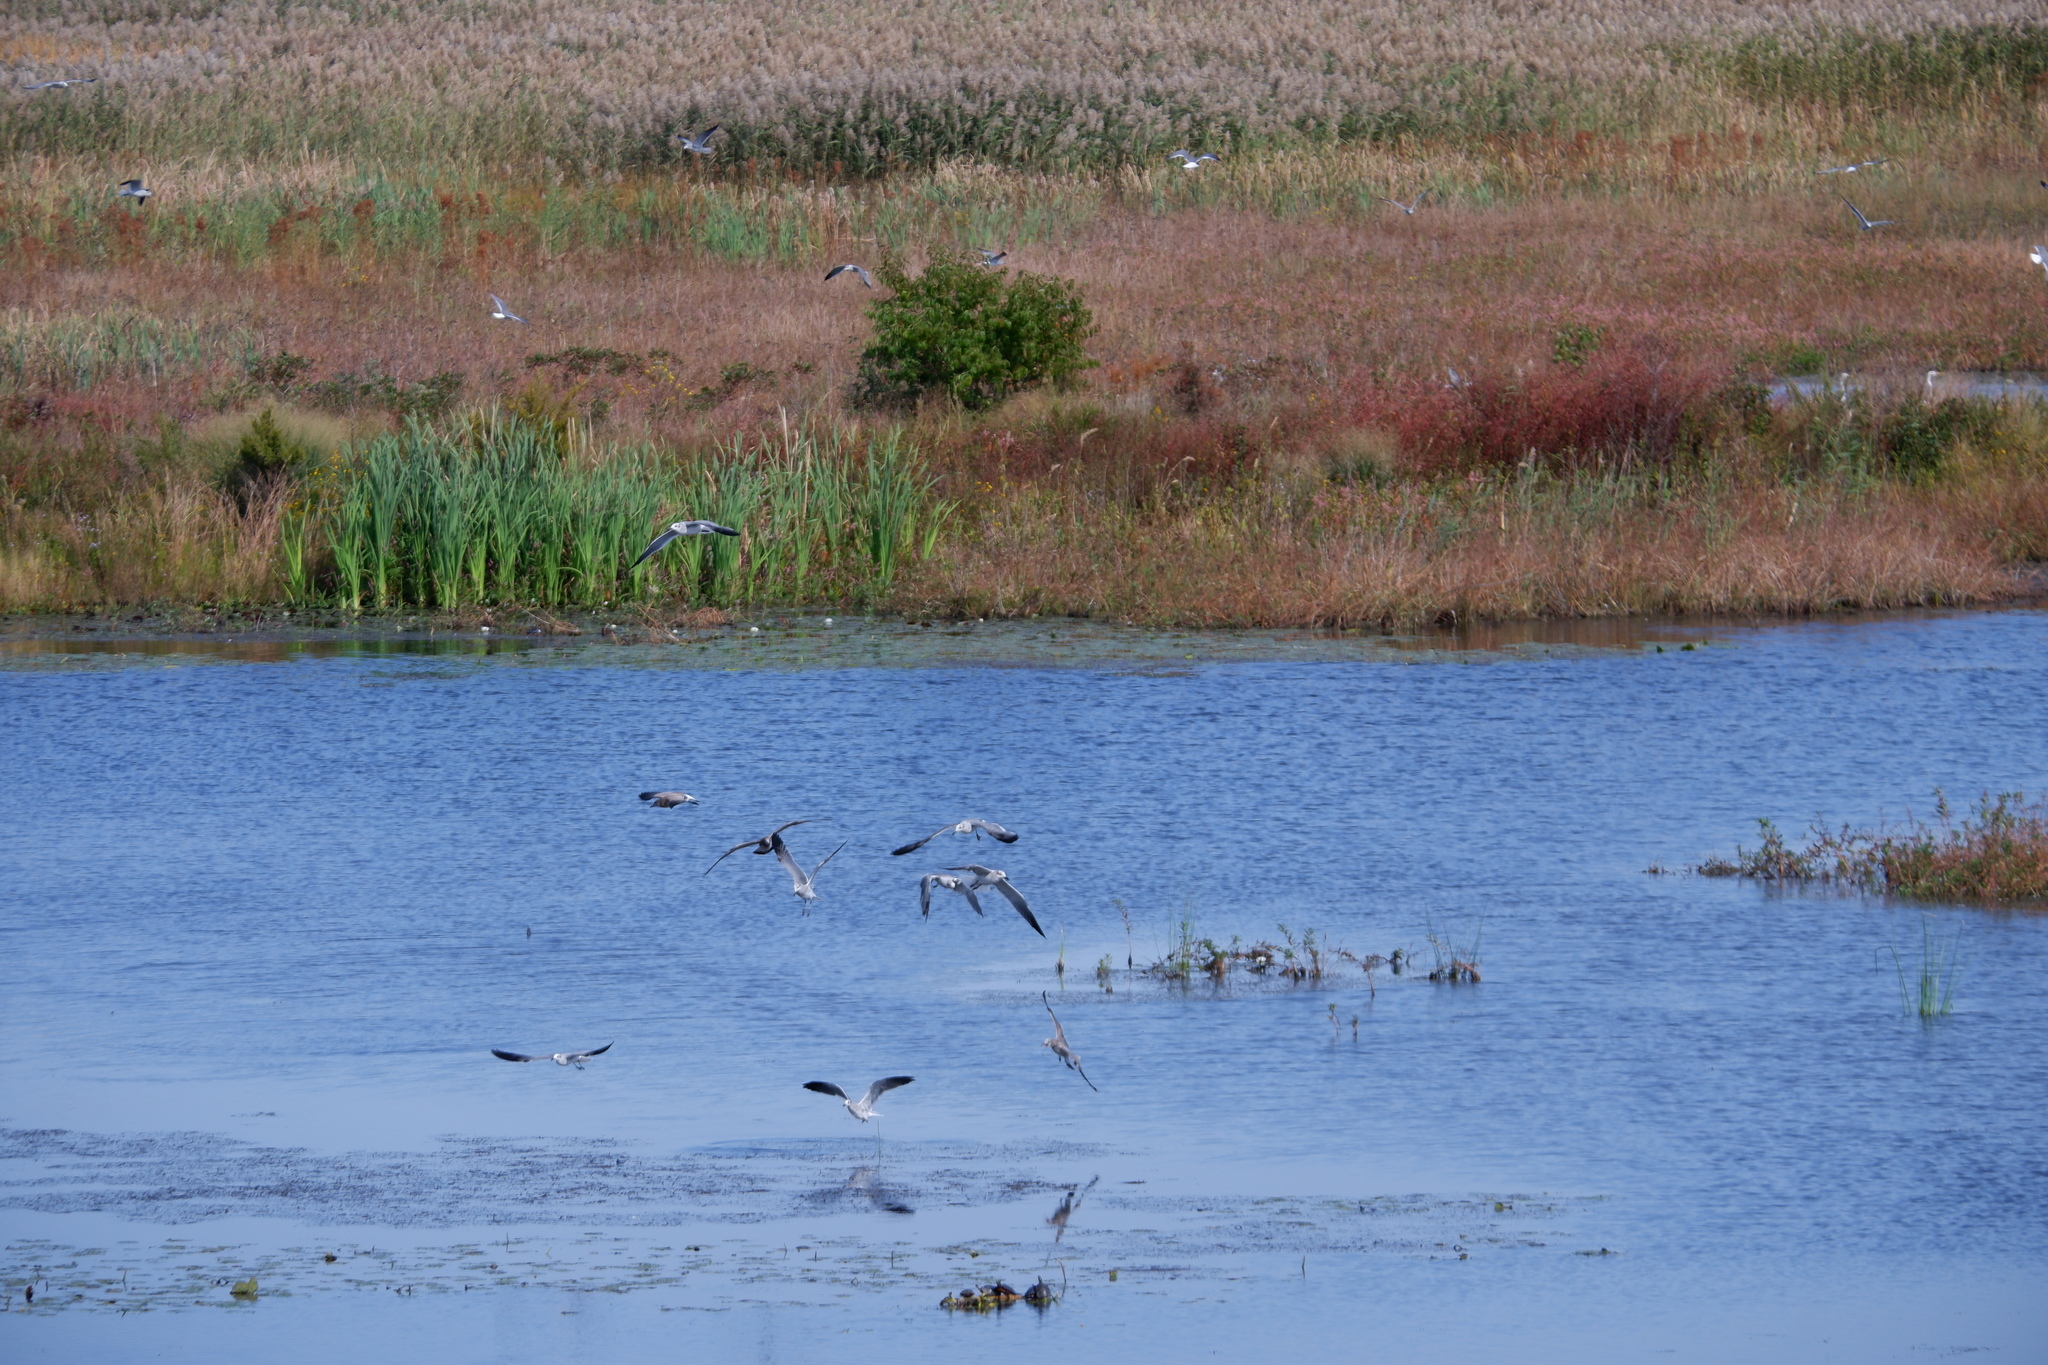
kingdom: Animalia
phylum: Chordata
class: Aves
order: Charadriiformes
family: Laridae
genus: Leucophaeus
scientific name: Leucophaeus atricilla
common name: Laughing gull
